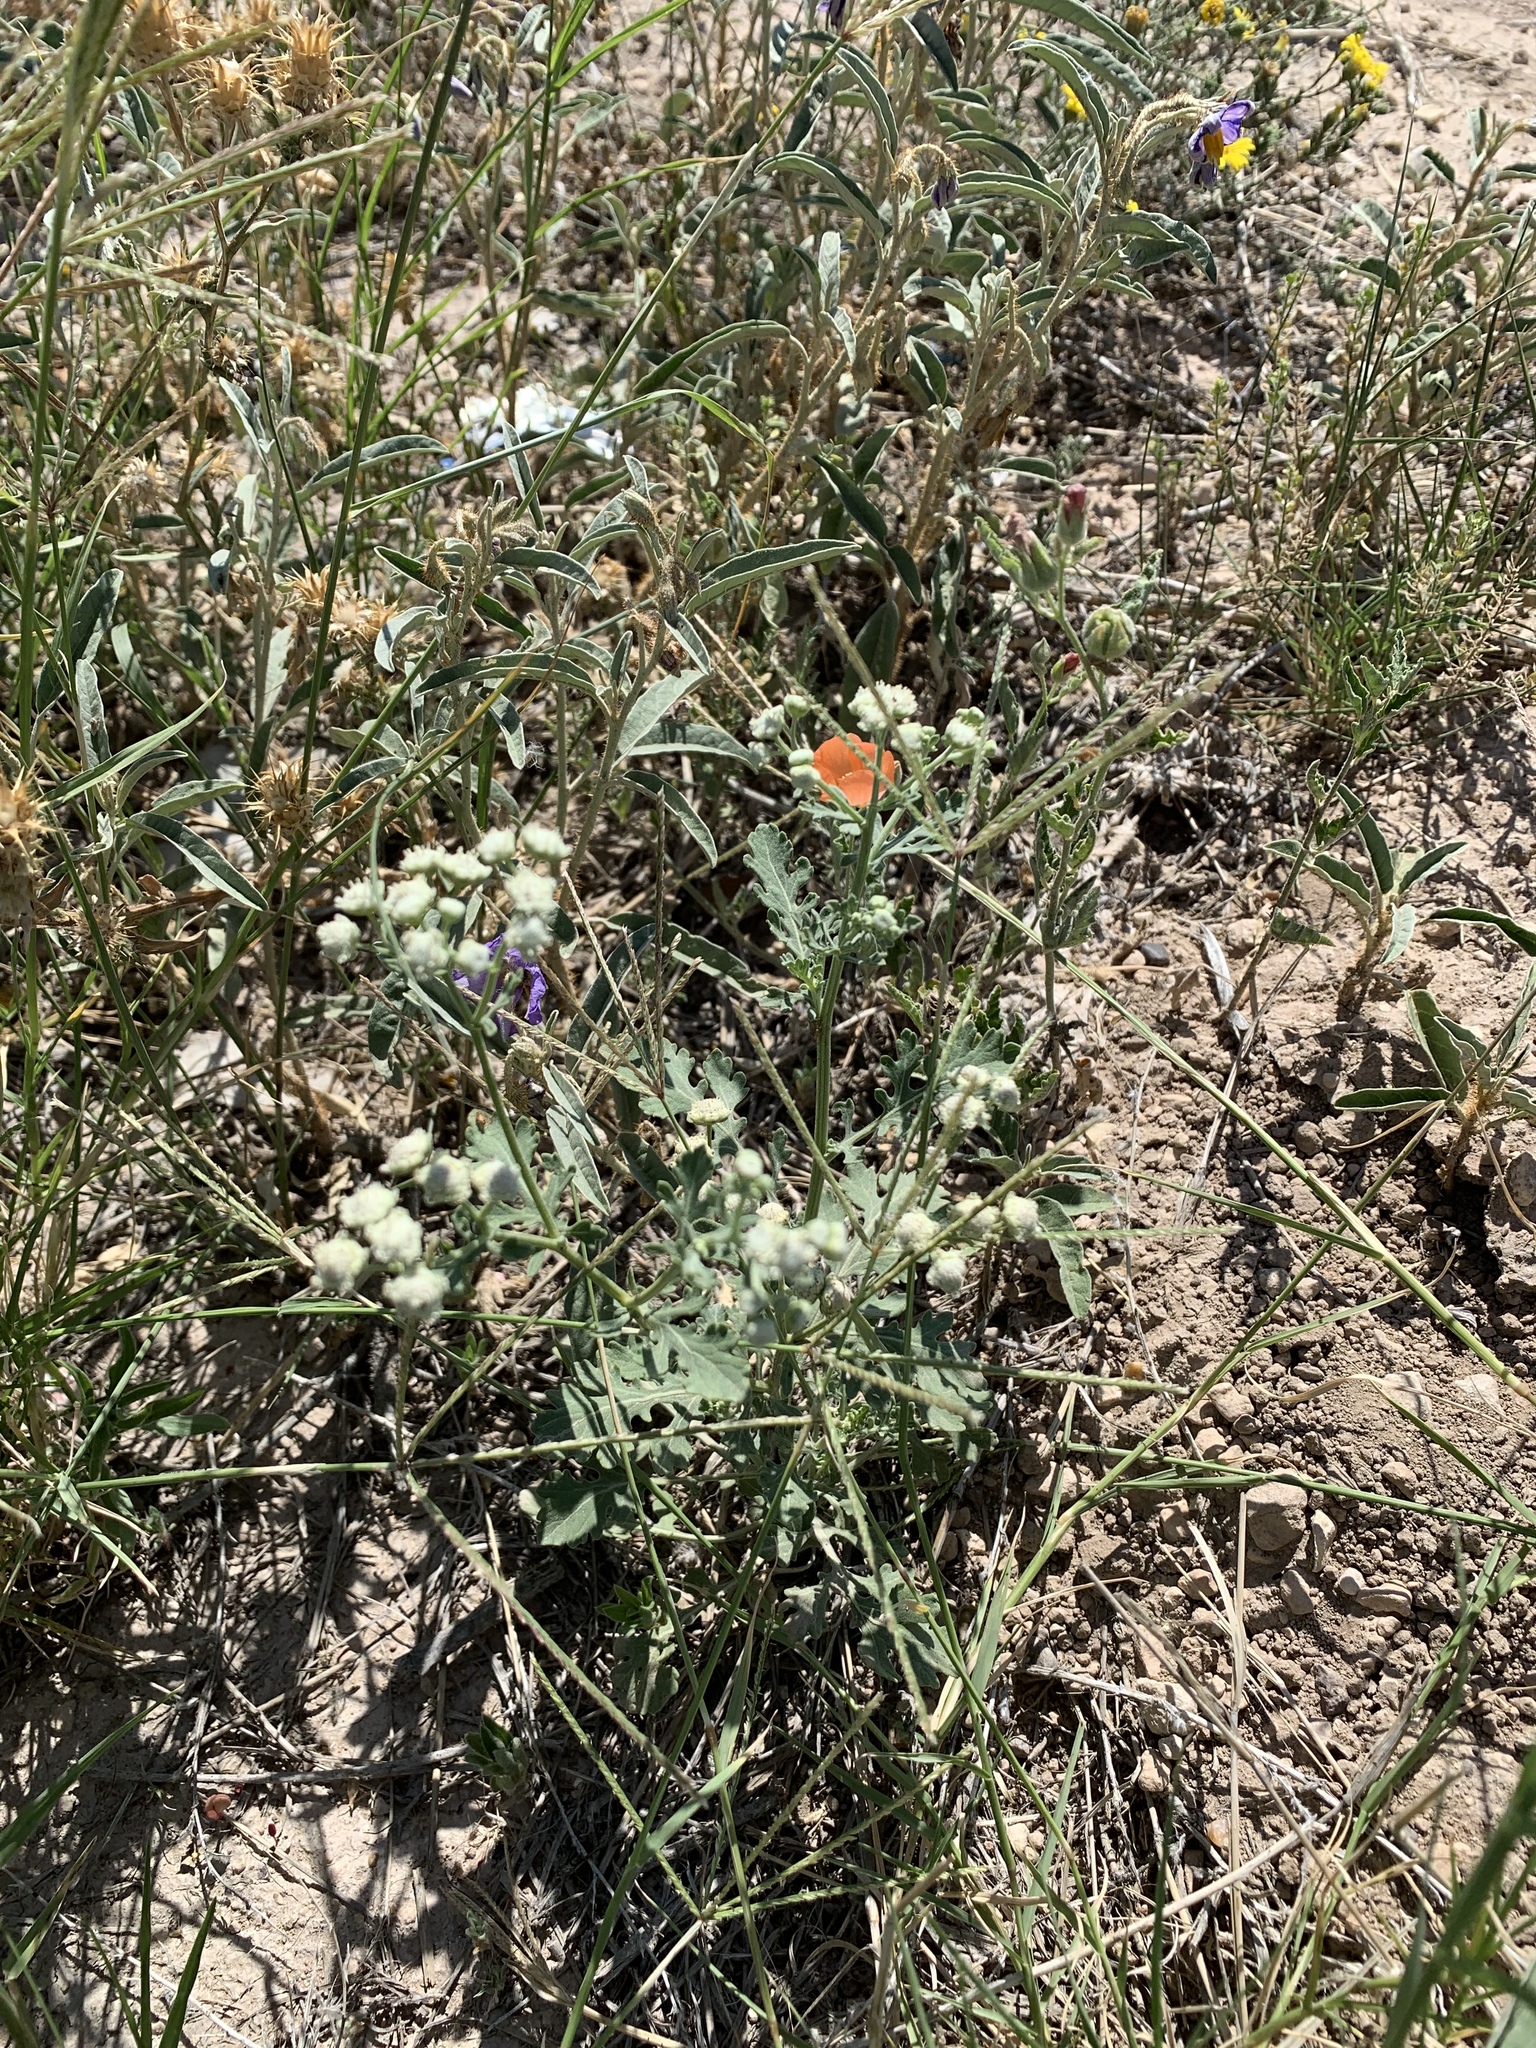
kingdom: Plantae
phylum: Tracheophyta
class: Magnoliopsida
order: Asterales
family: Asteraceae
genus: Parthenium
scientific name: Parthenium hysterophorus
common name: Santa maria feverfew
